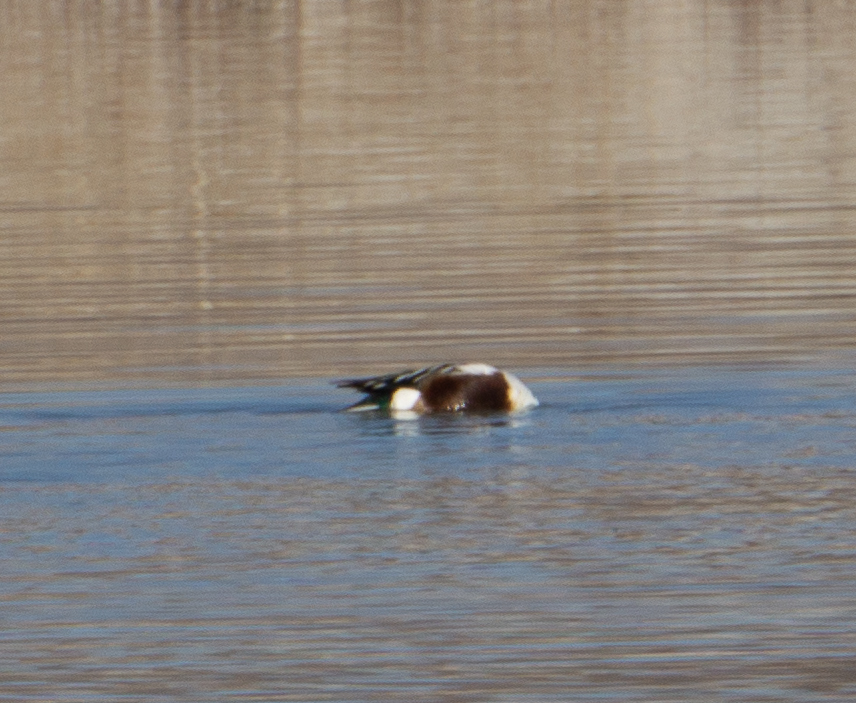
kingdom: Animalia
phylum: Chordata
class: Aves
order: Anseriformes
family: Anatidae
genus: Spatula
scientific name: Spatula clypeata
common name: Northern shoveler
